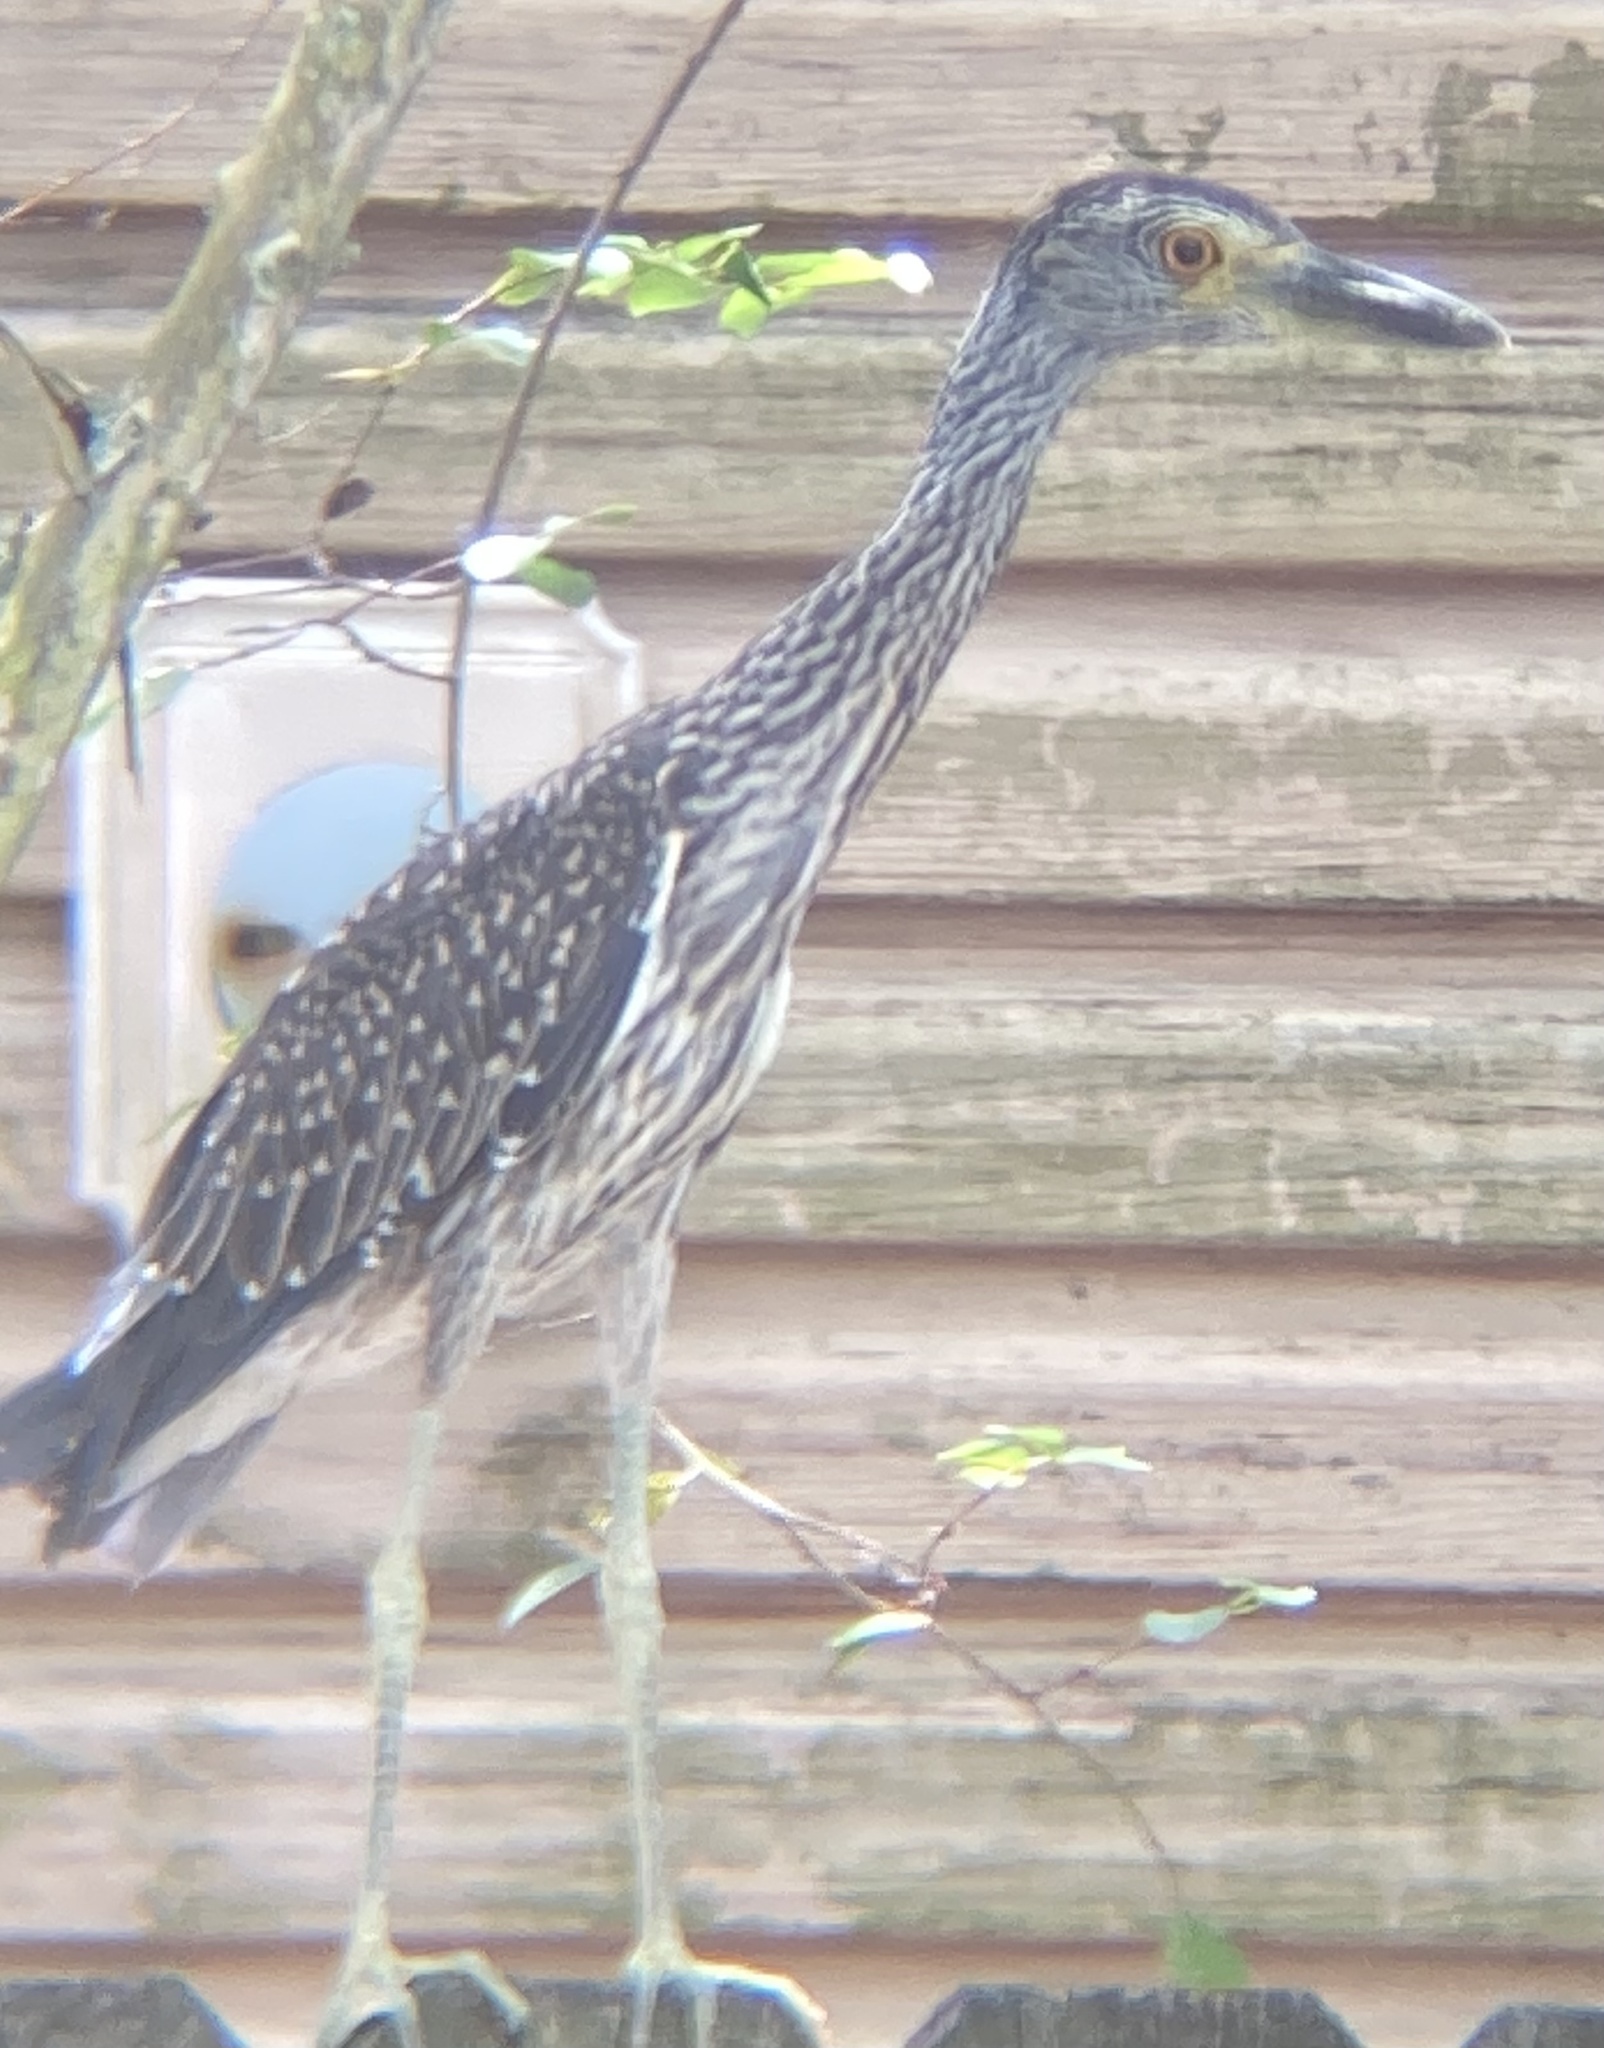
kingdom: Animalia
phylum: Chordata
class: Aves
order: Pelecaniformes
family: Ardeidae
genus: Nyctanassa
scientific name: Nyctanassa violacea
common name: Yellow-crowned night heron
